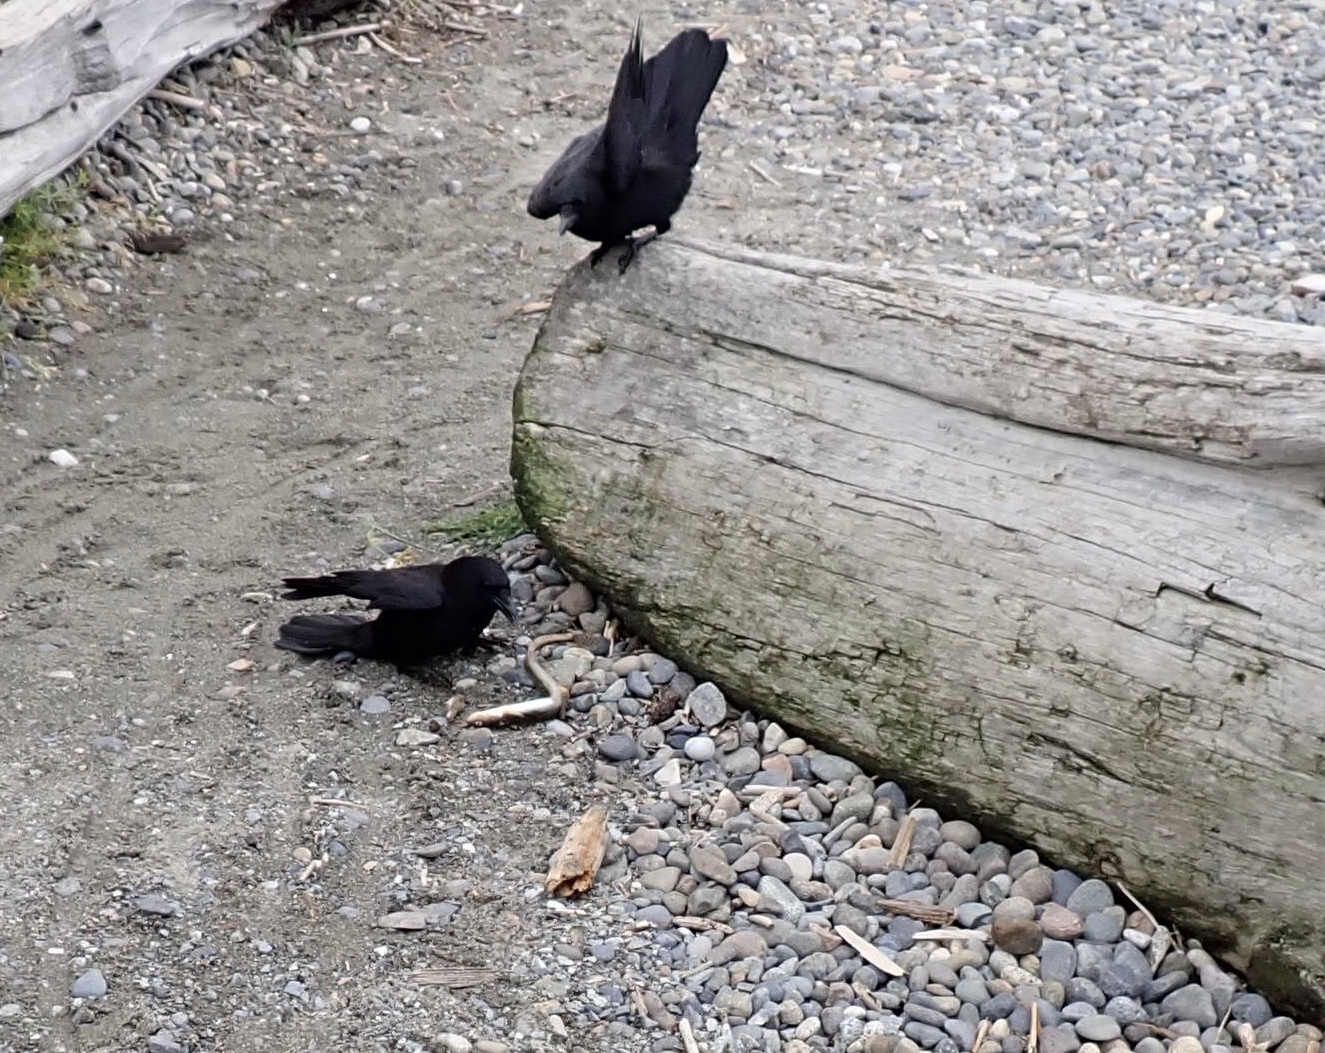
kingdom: Animalia
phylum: Chordata
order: Perciformes
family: Stichaeidae
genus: Lumpenus
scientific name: Lumpenus sagitta
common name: Snake prickleback
